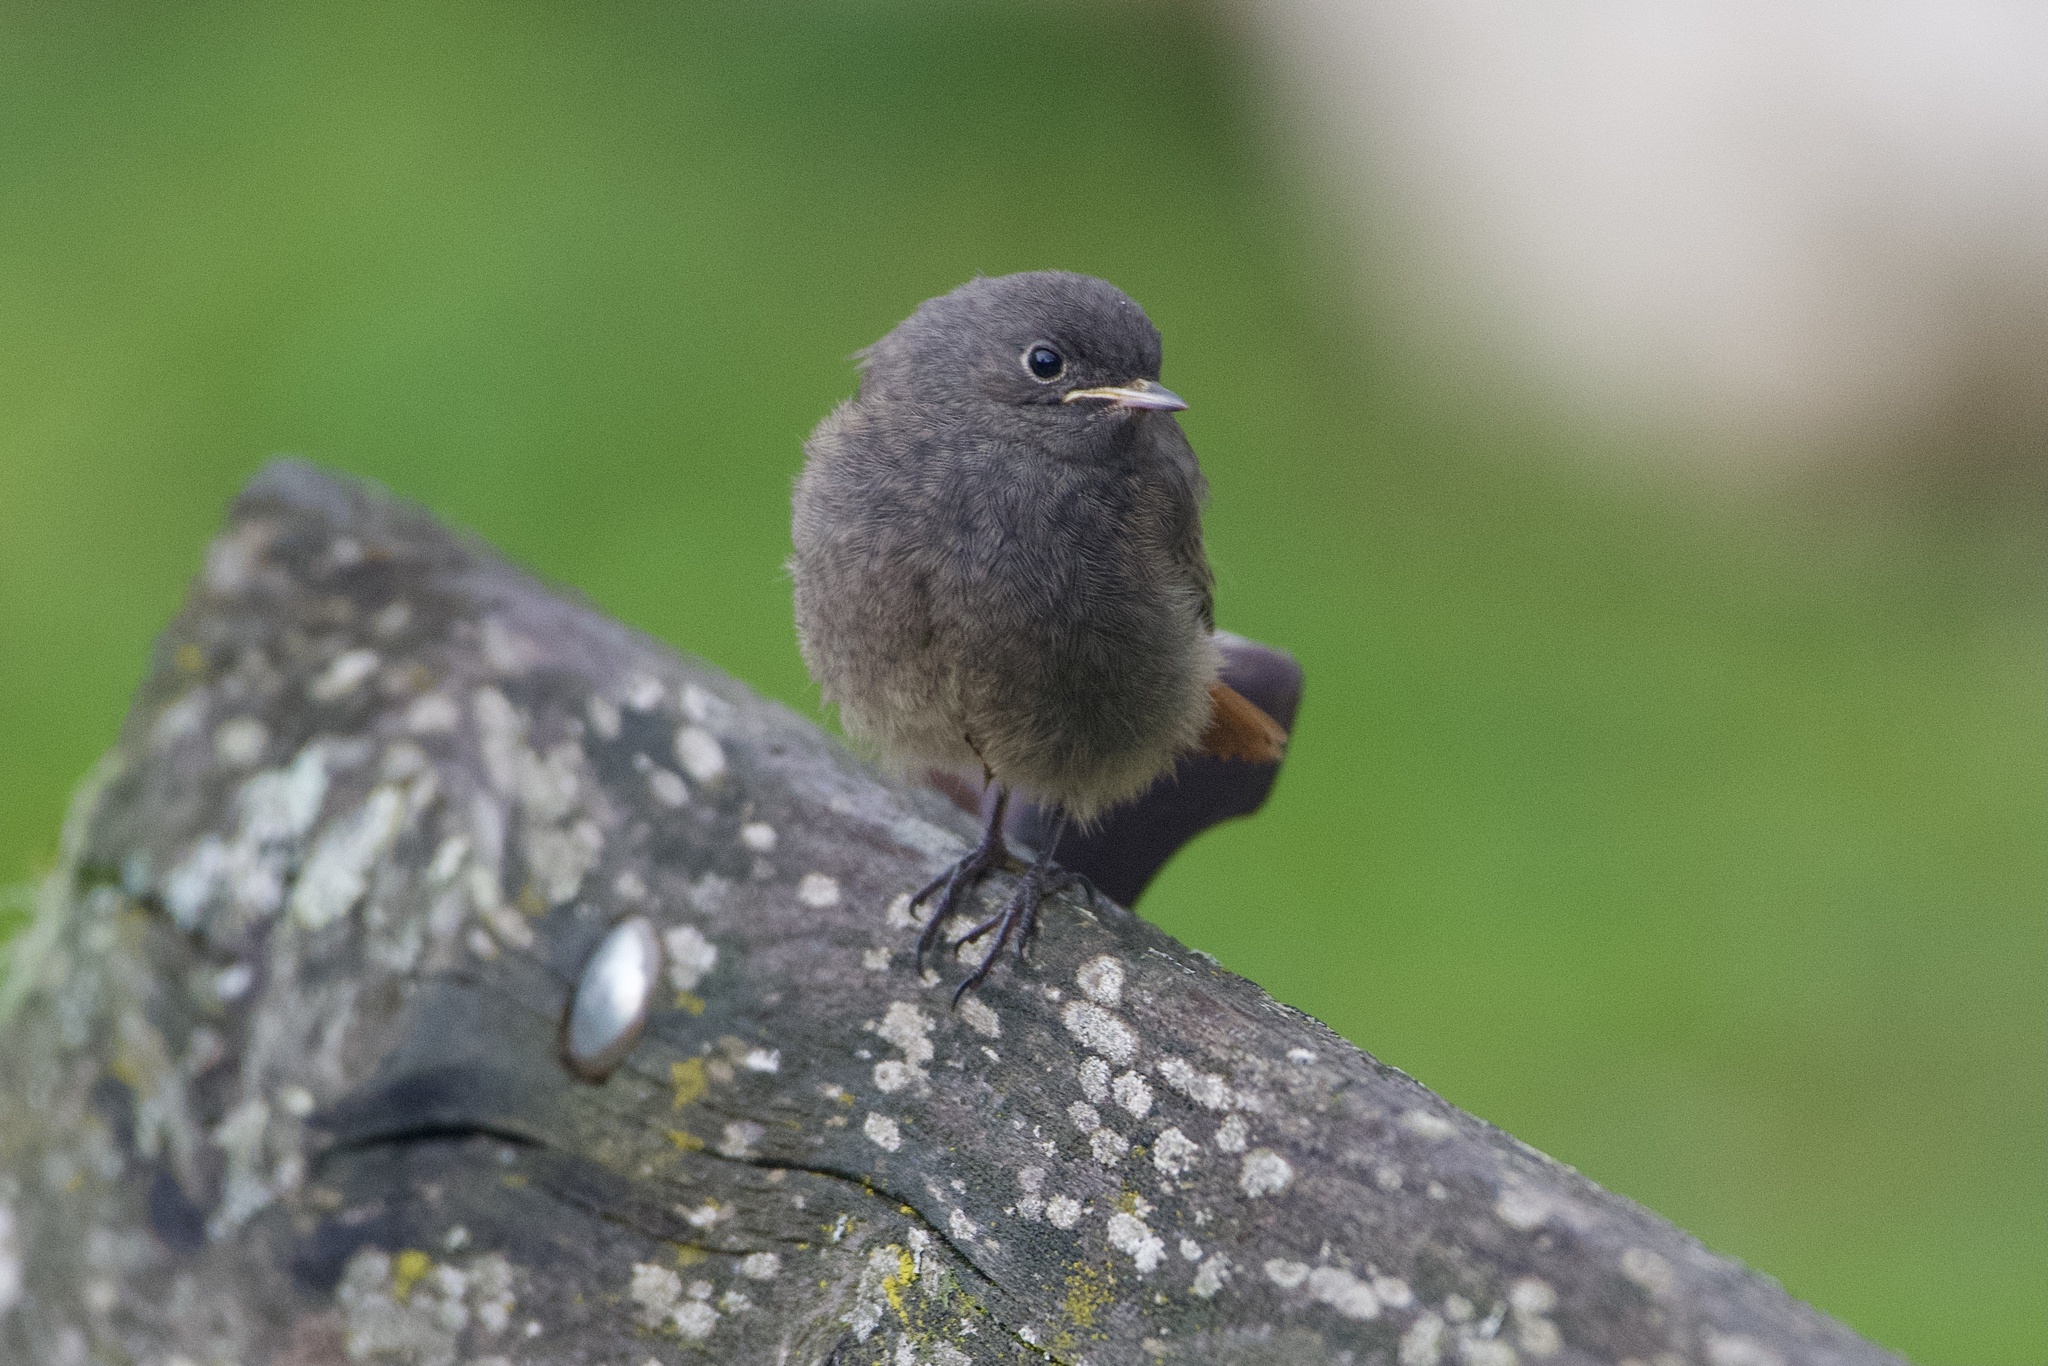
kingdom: Animalia
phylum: Chordata
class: Aves
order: Passeriformes
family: Muscicapidae
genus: Phoenicurus
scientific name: Phoenicurus ochruros
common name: Black redstart
